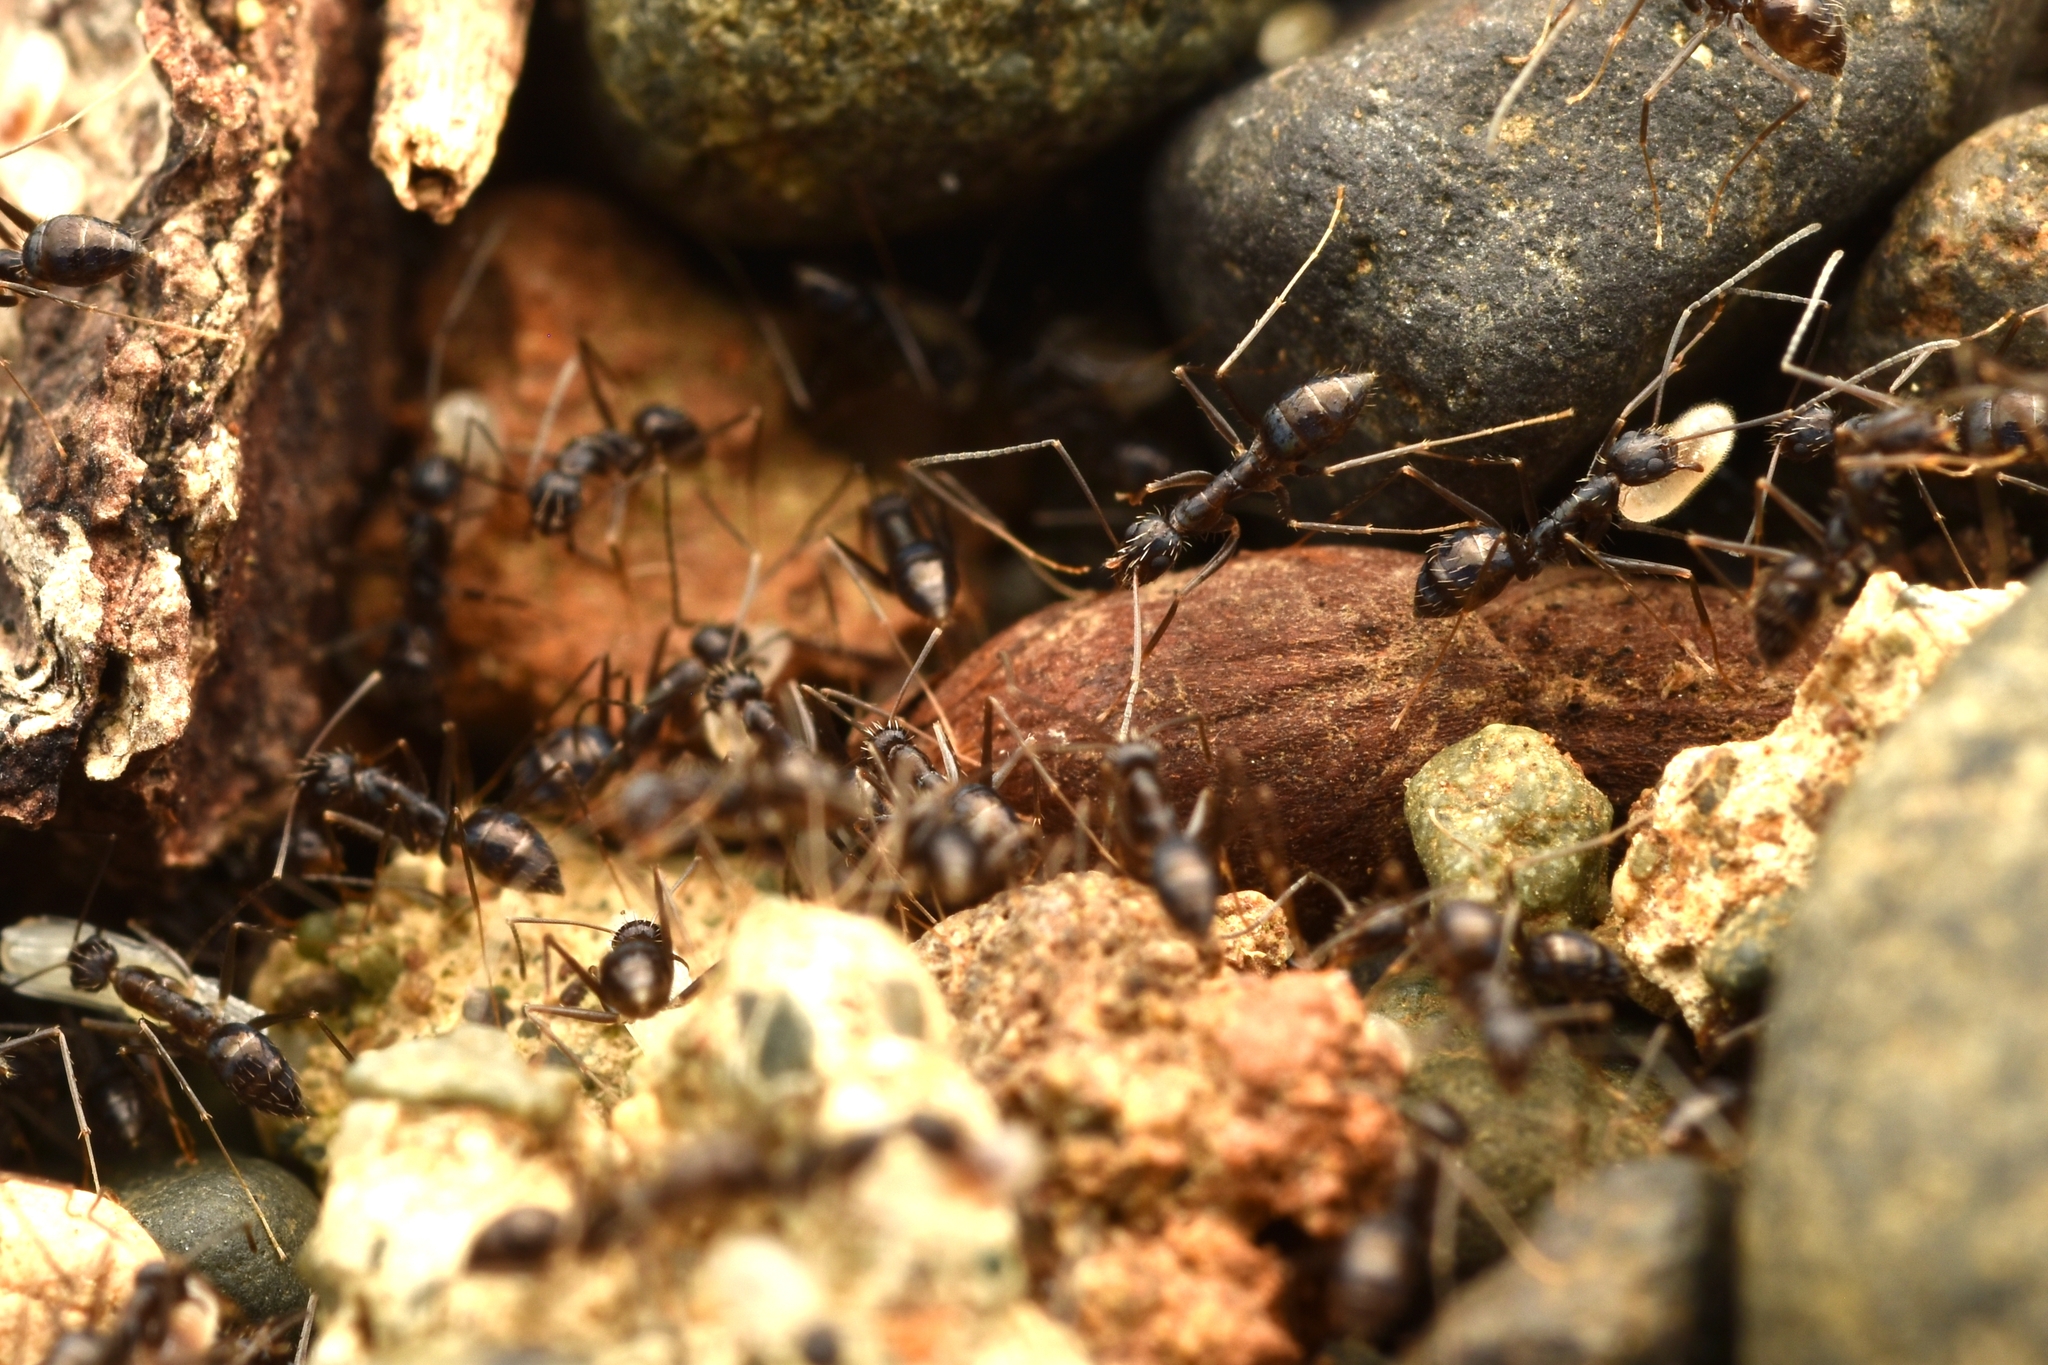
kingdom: Animalia
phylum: Arthropoda
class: Insecta
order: Hymenoptera
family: Formicidae
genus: Paratrechina
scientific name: Paratrechina longicornis
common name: Longhorned crazy ant
